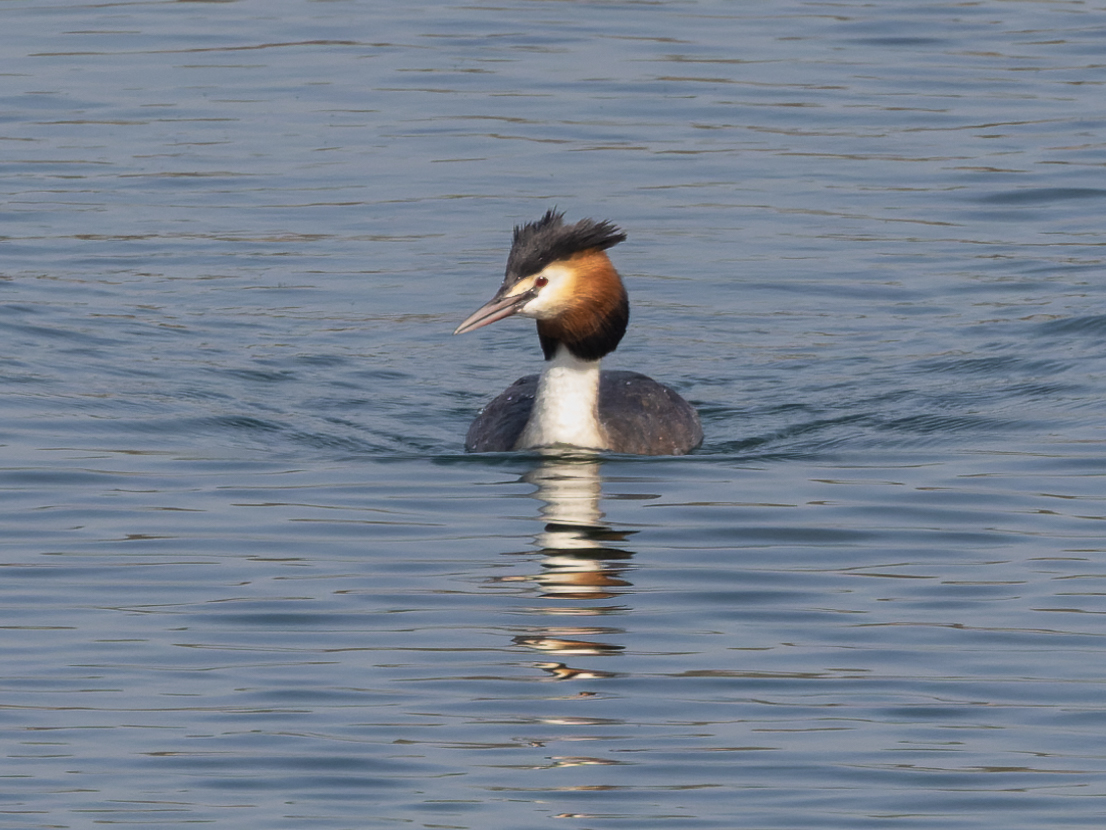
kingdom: Animalia
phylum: Chordata
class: Aves
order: Podicipediformes
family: Podicipedidae
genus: Podiceps
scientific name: Podiceps cristatus
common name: Great crested grebe
